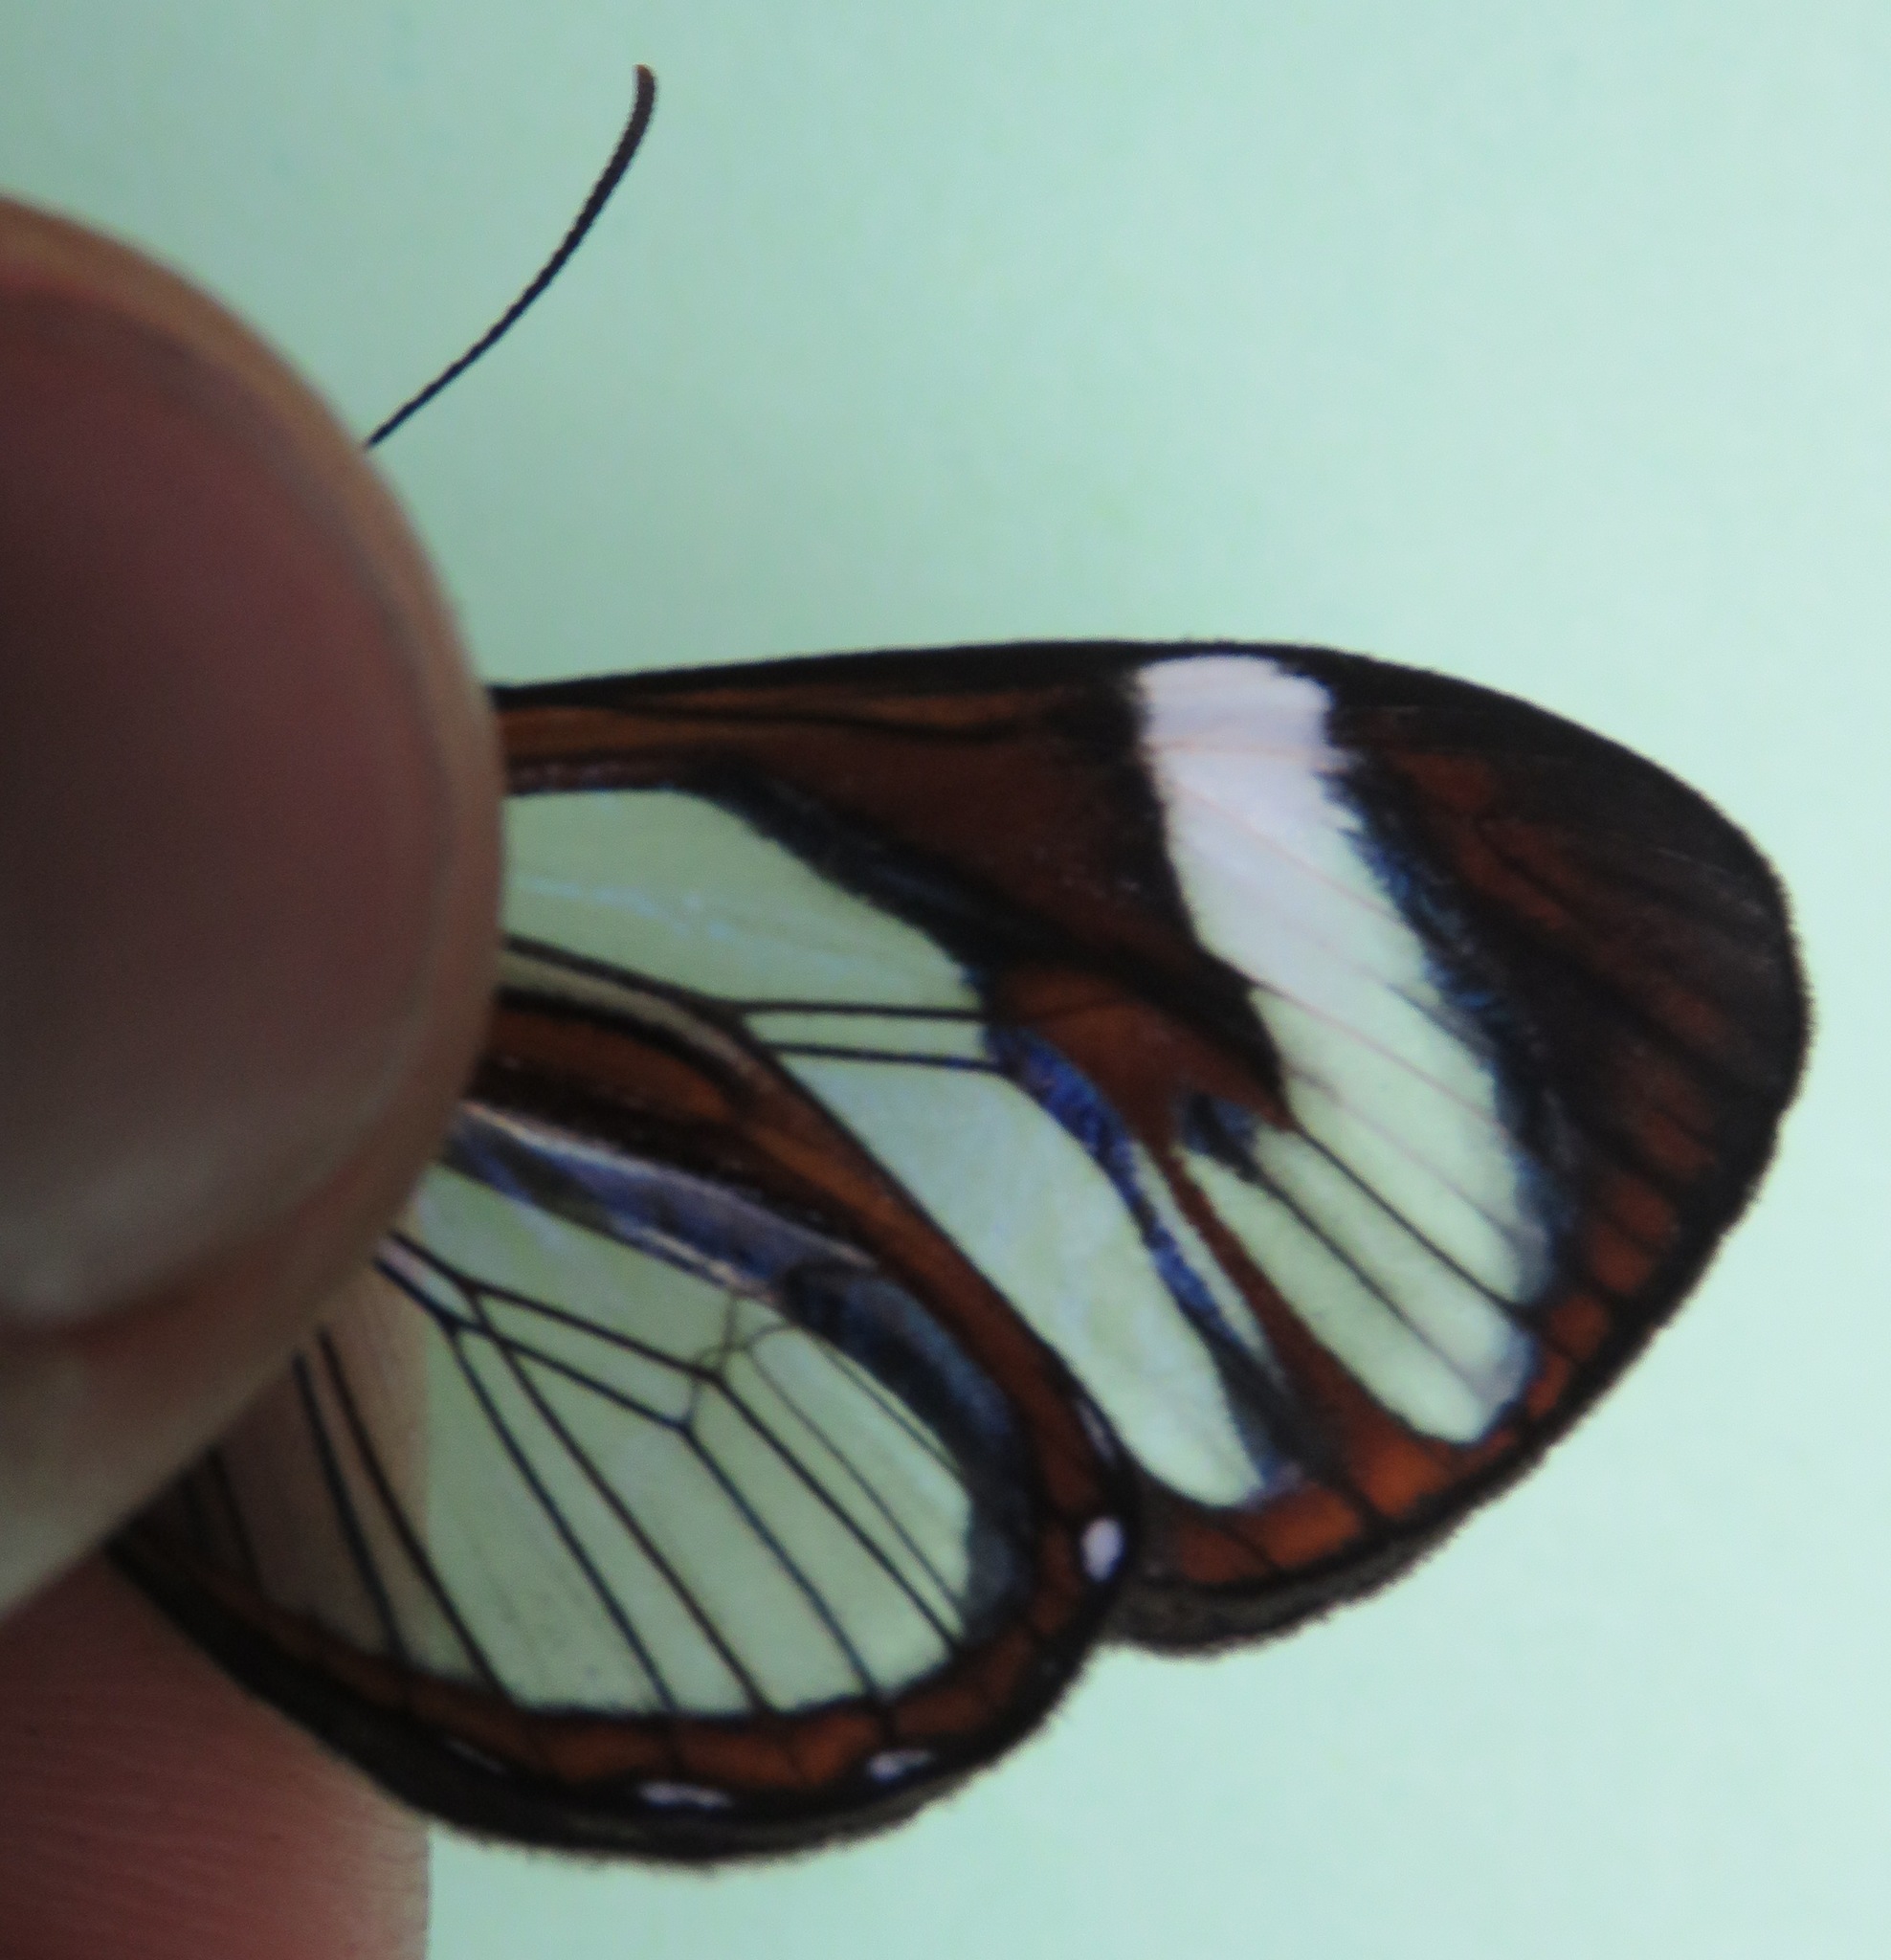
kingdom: Animalia
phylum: Arthropoda
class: Insecta
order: Lepidoptera
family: Nymphalidae
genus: Ithomia
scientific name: Ithomia patilla
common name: Patilla clearwing
